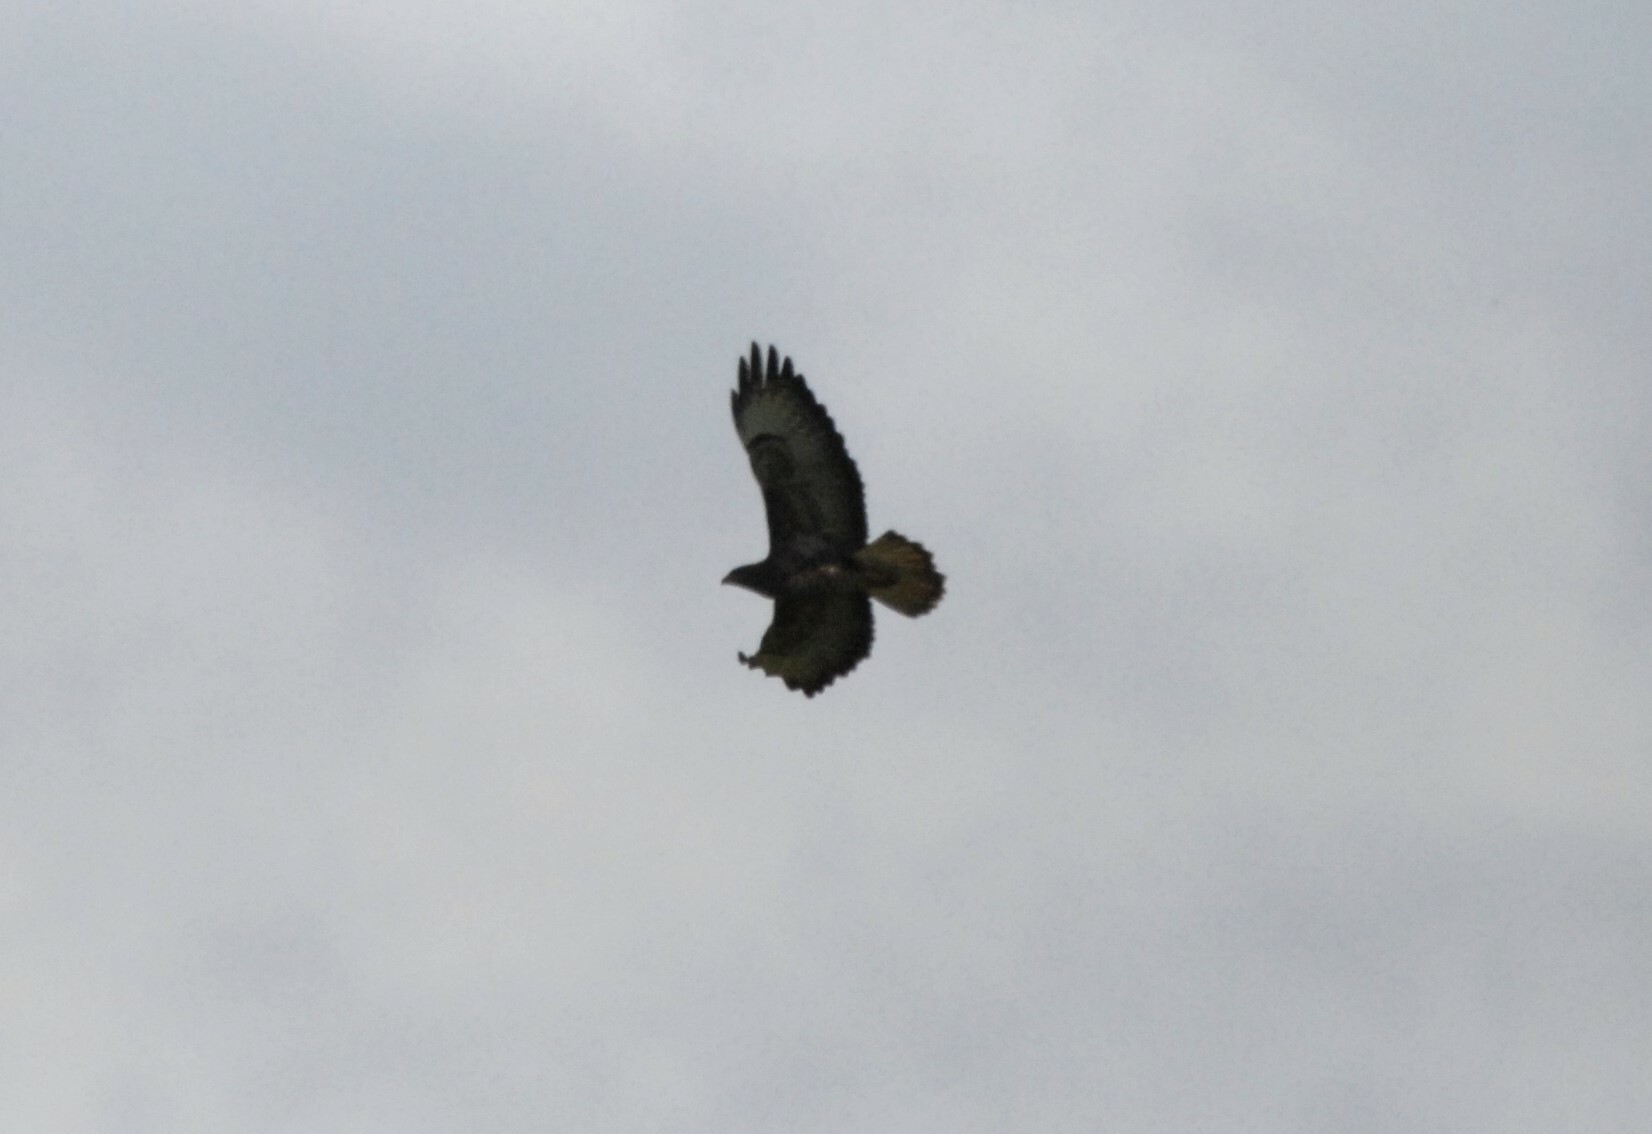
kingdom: Animalia
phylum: Chordata
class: Aves
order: Accipitriformes
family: Accipitridae
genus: Buteo
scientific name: Buteo buteo
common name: Common buzzard
